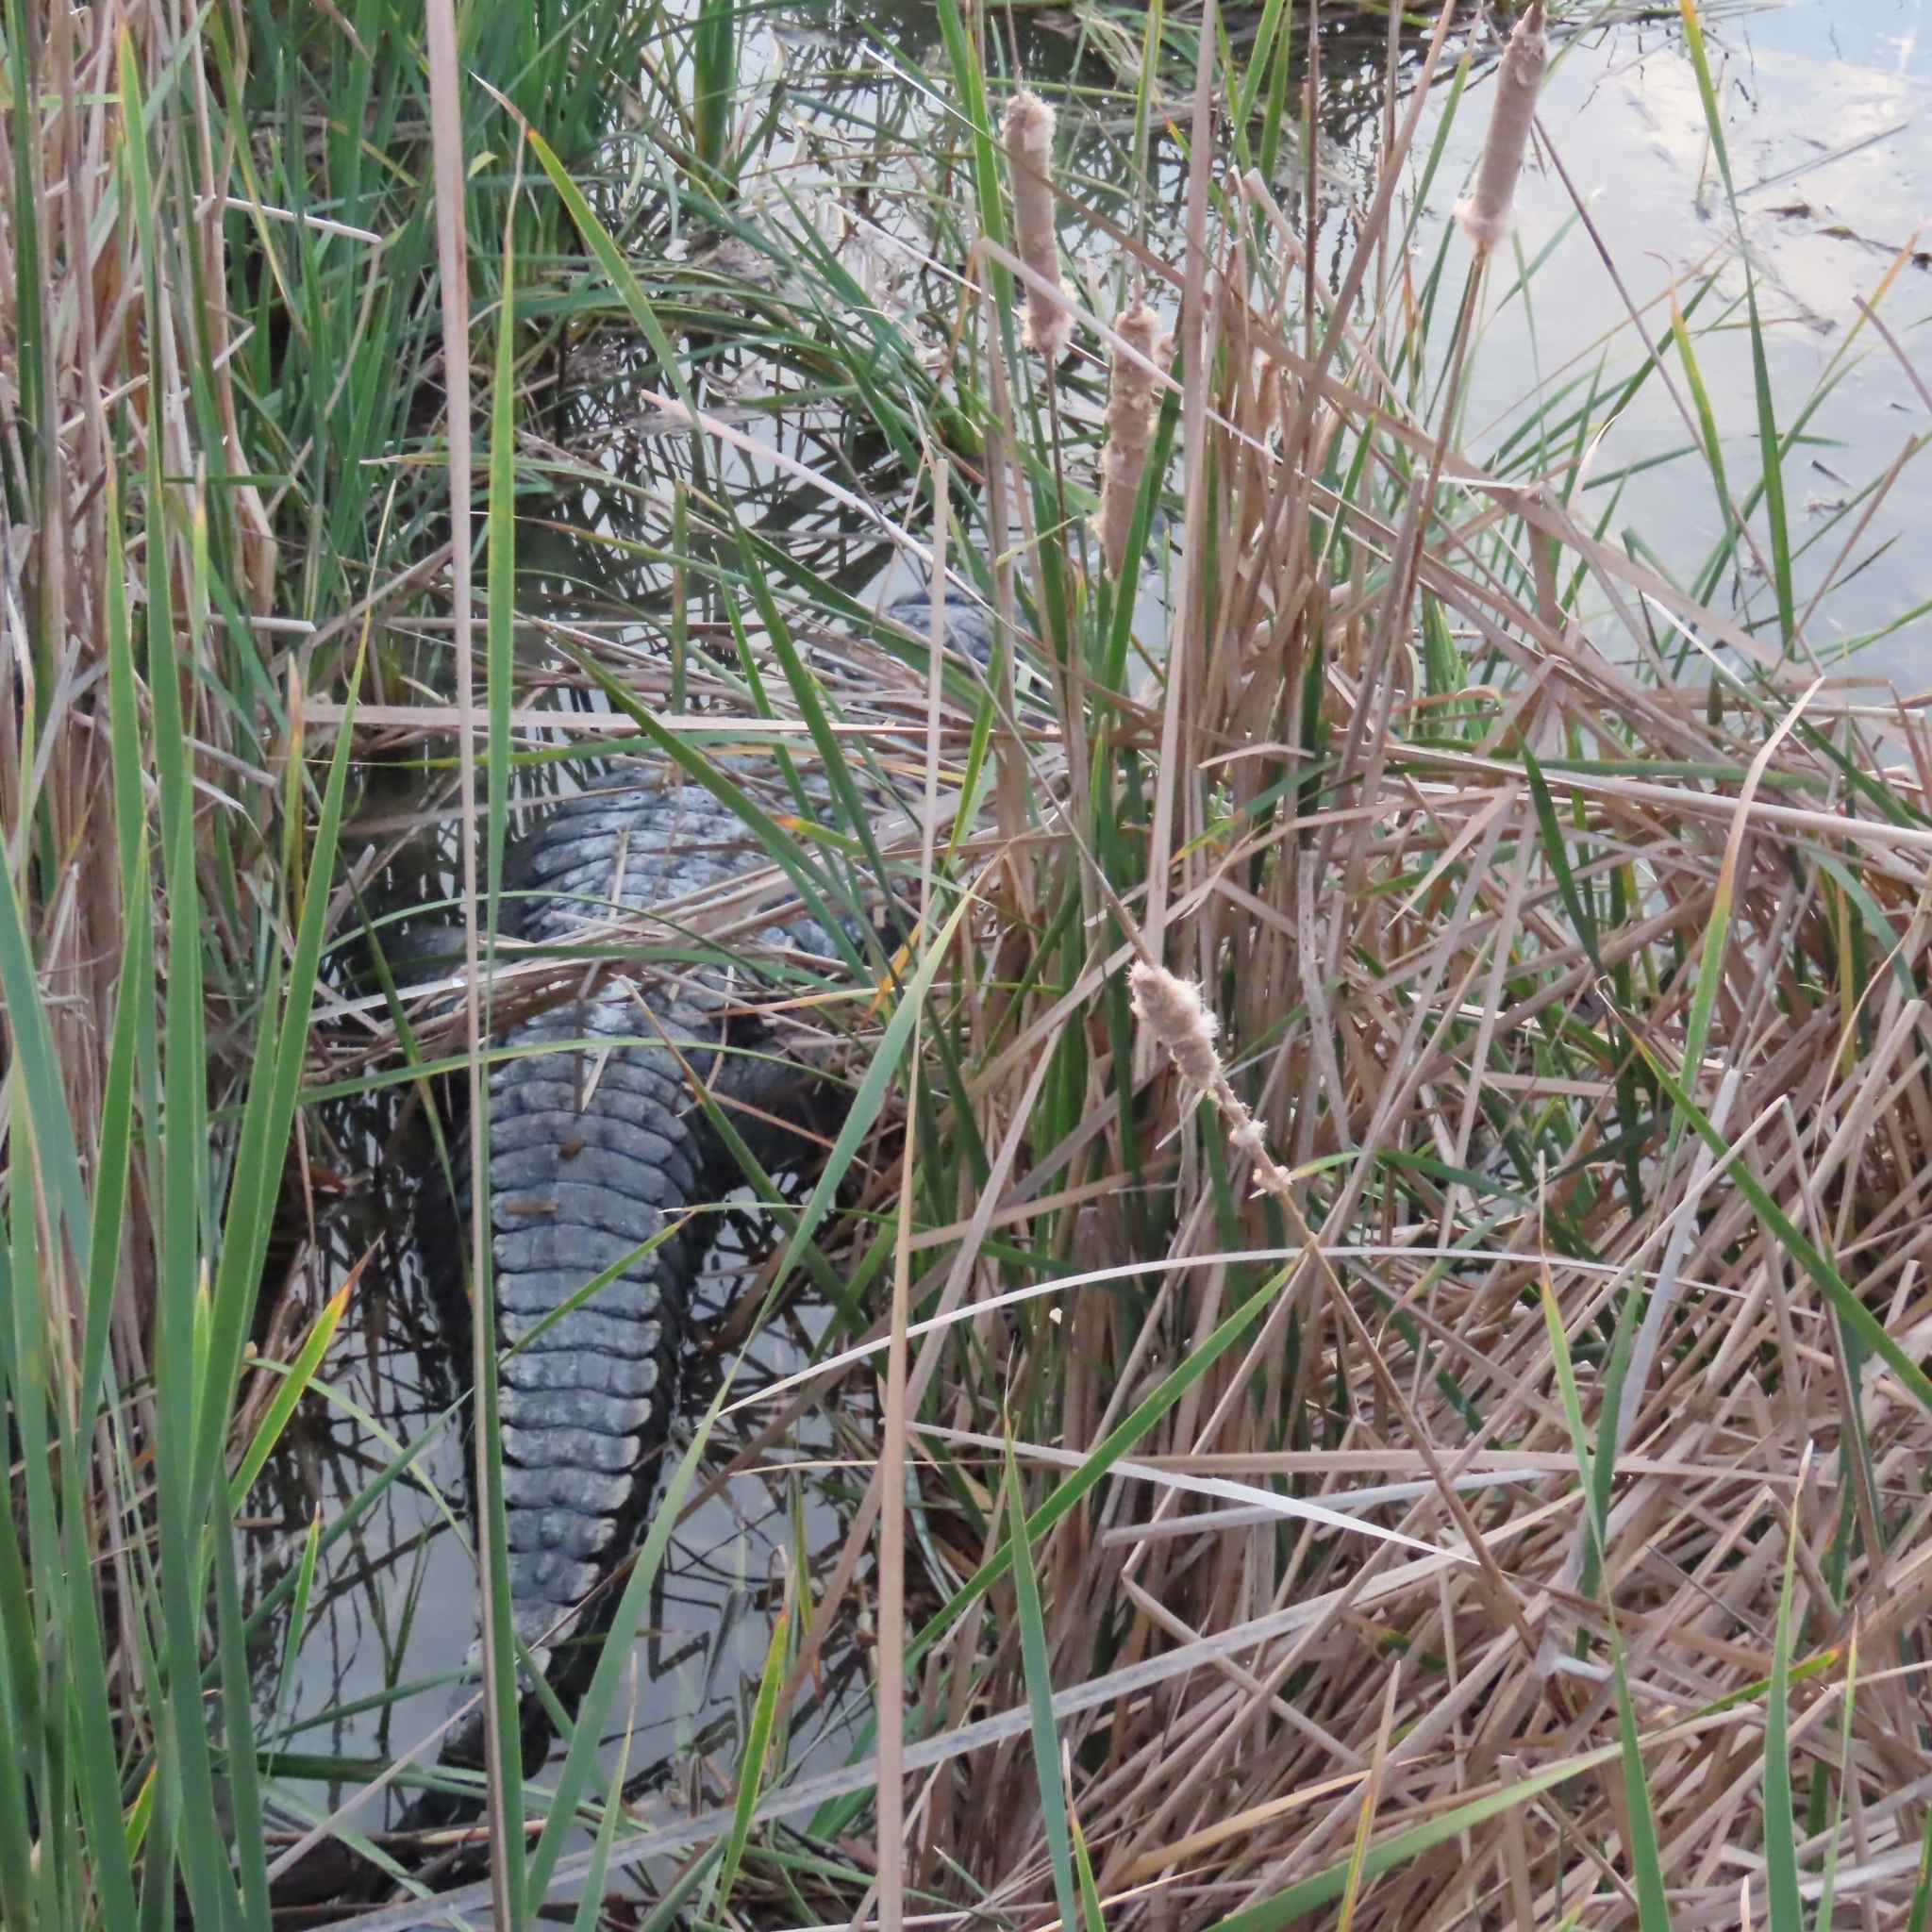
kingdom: Animalia
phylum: Chordata
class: Crocodylia
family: Alligatoridae
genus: Alligator
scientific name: Alligator mississippiensis
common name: American alligator
